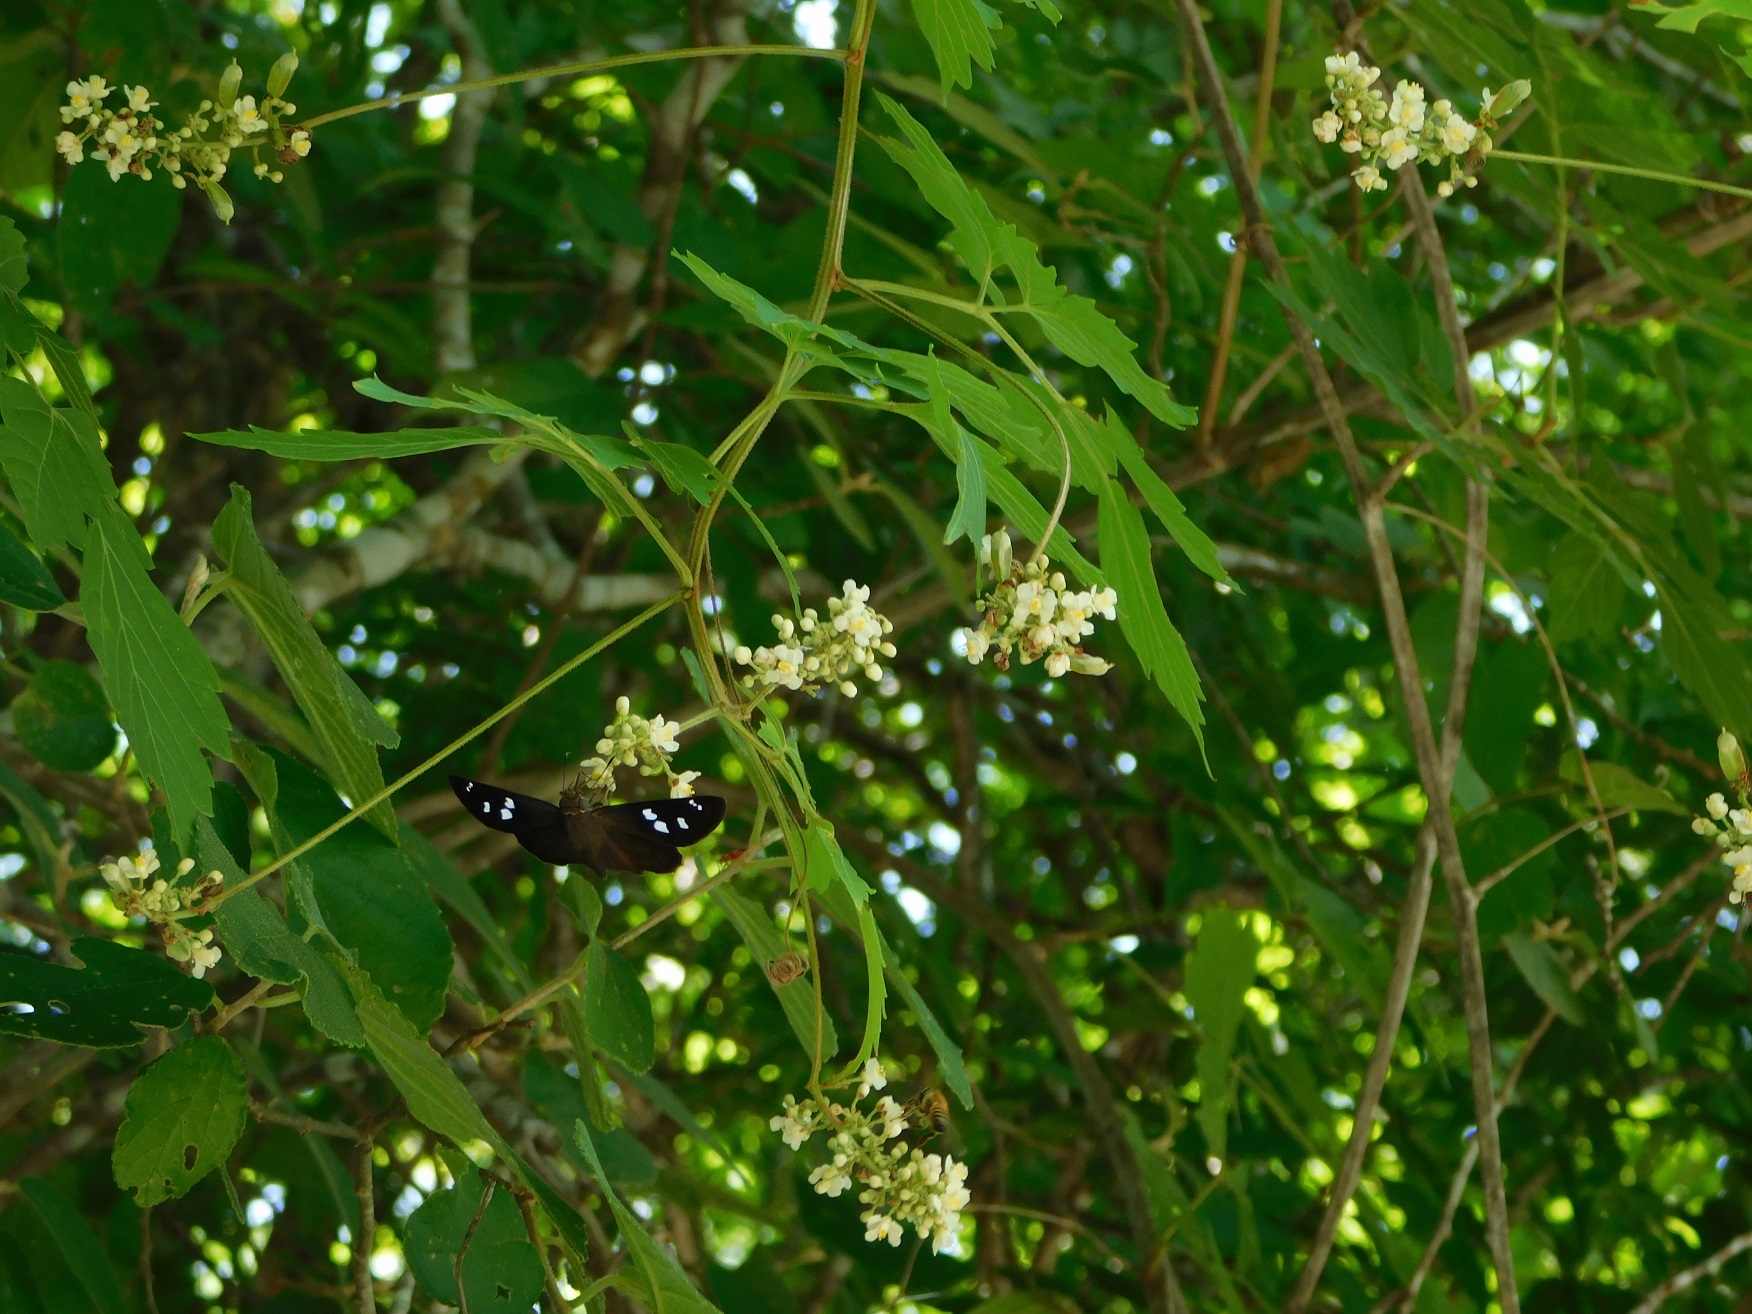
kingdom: Plantae
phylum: Tracheophyta
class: Magnoliopsida
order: Sapindales
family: Sapindaceae
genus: Cardiospermum
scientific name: Cardiospermum grandiflorum
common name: Balloon vine
